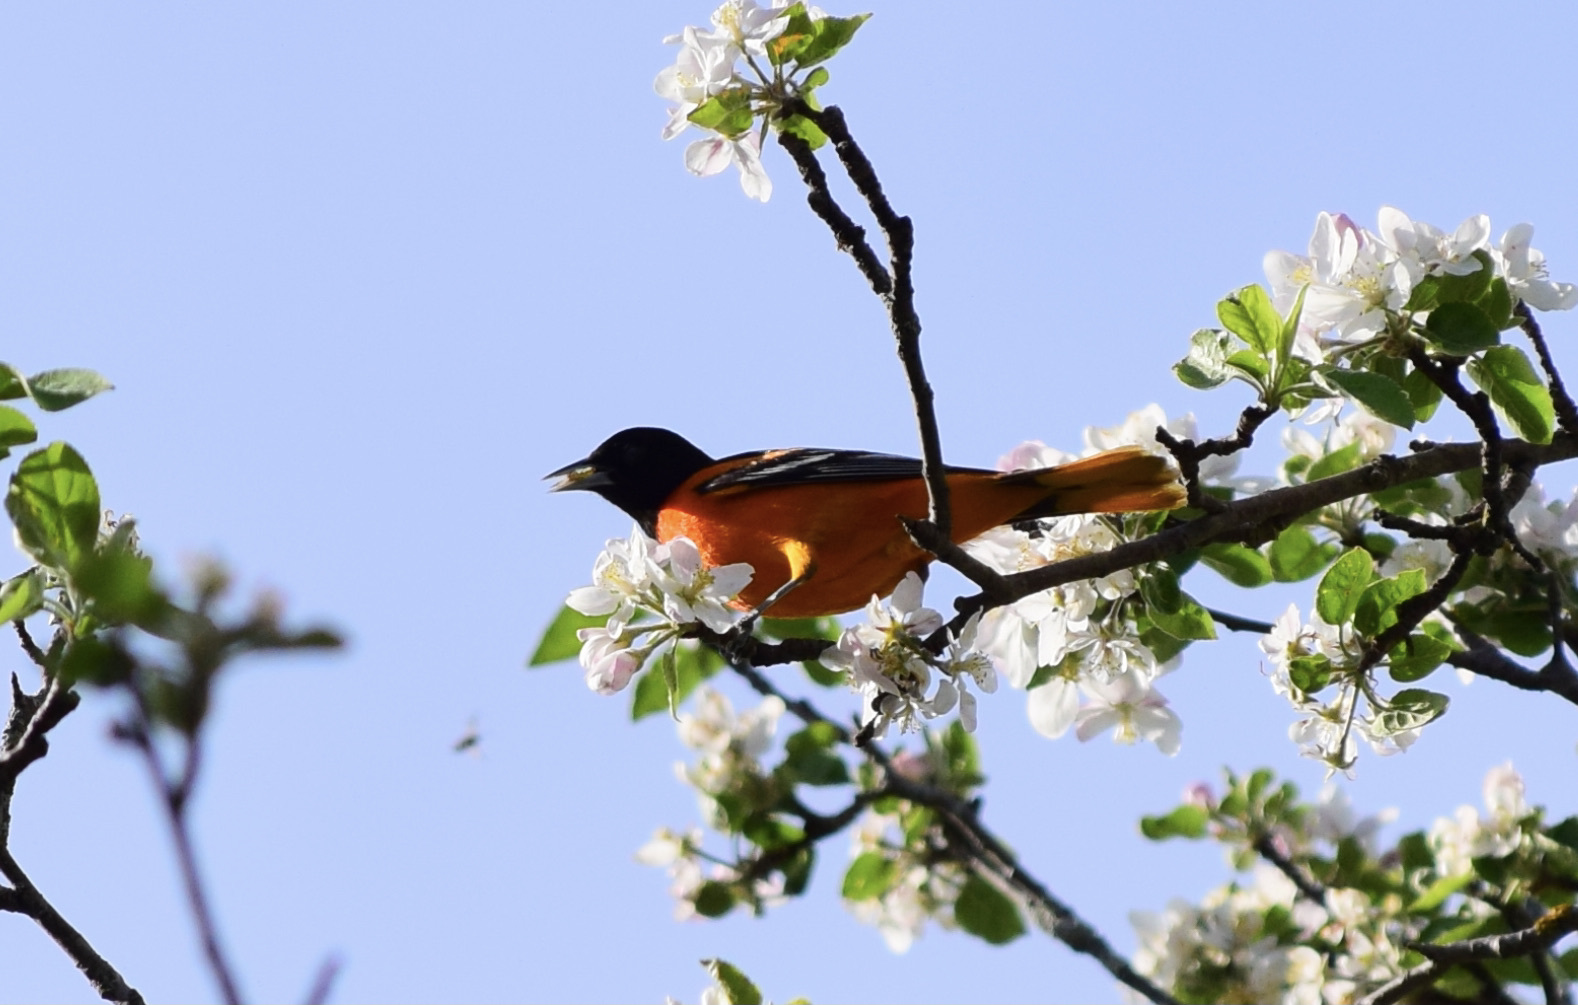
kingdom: Animalia
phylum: Chordata
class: Aves
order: Passeriformes
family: Icteridae
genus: Icterus
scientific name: Icterus galbula
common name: Baltimore oriole
